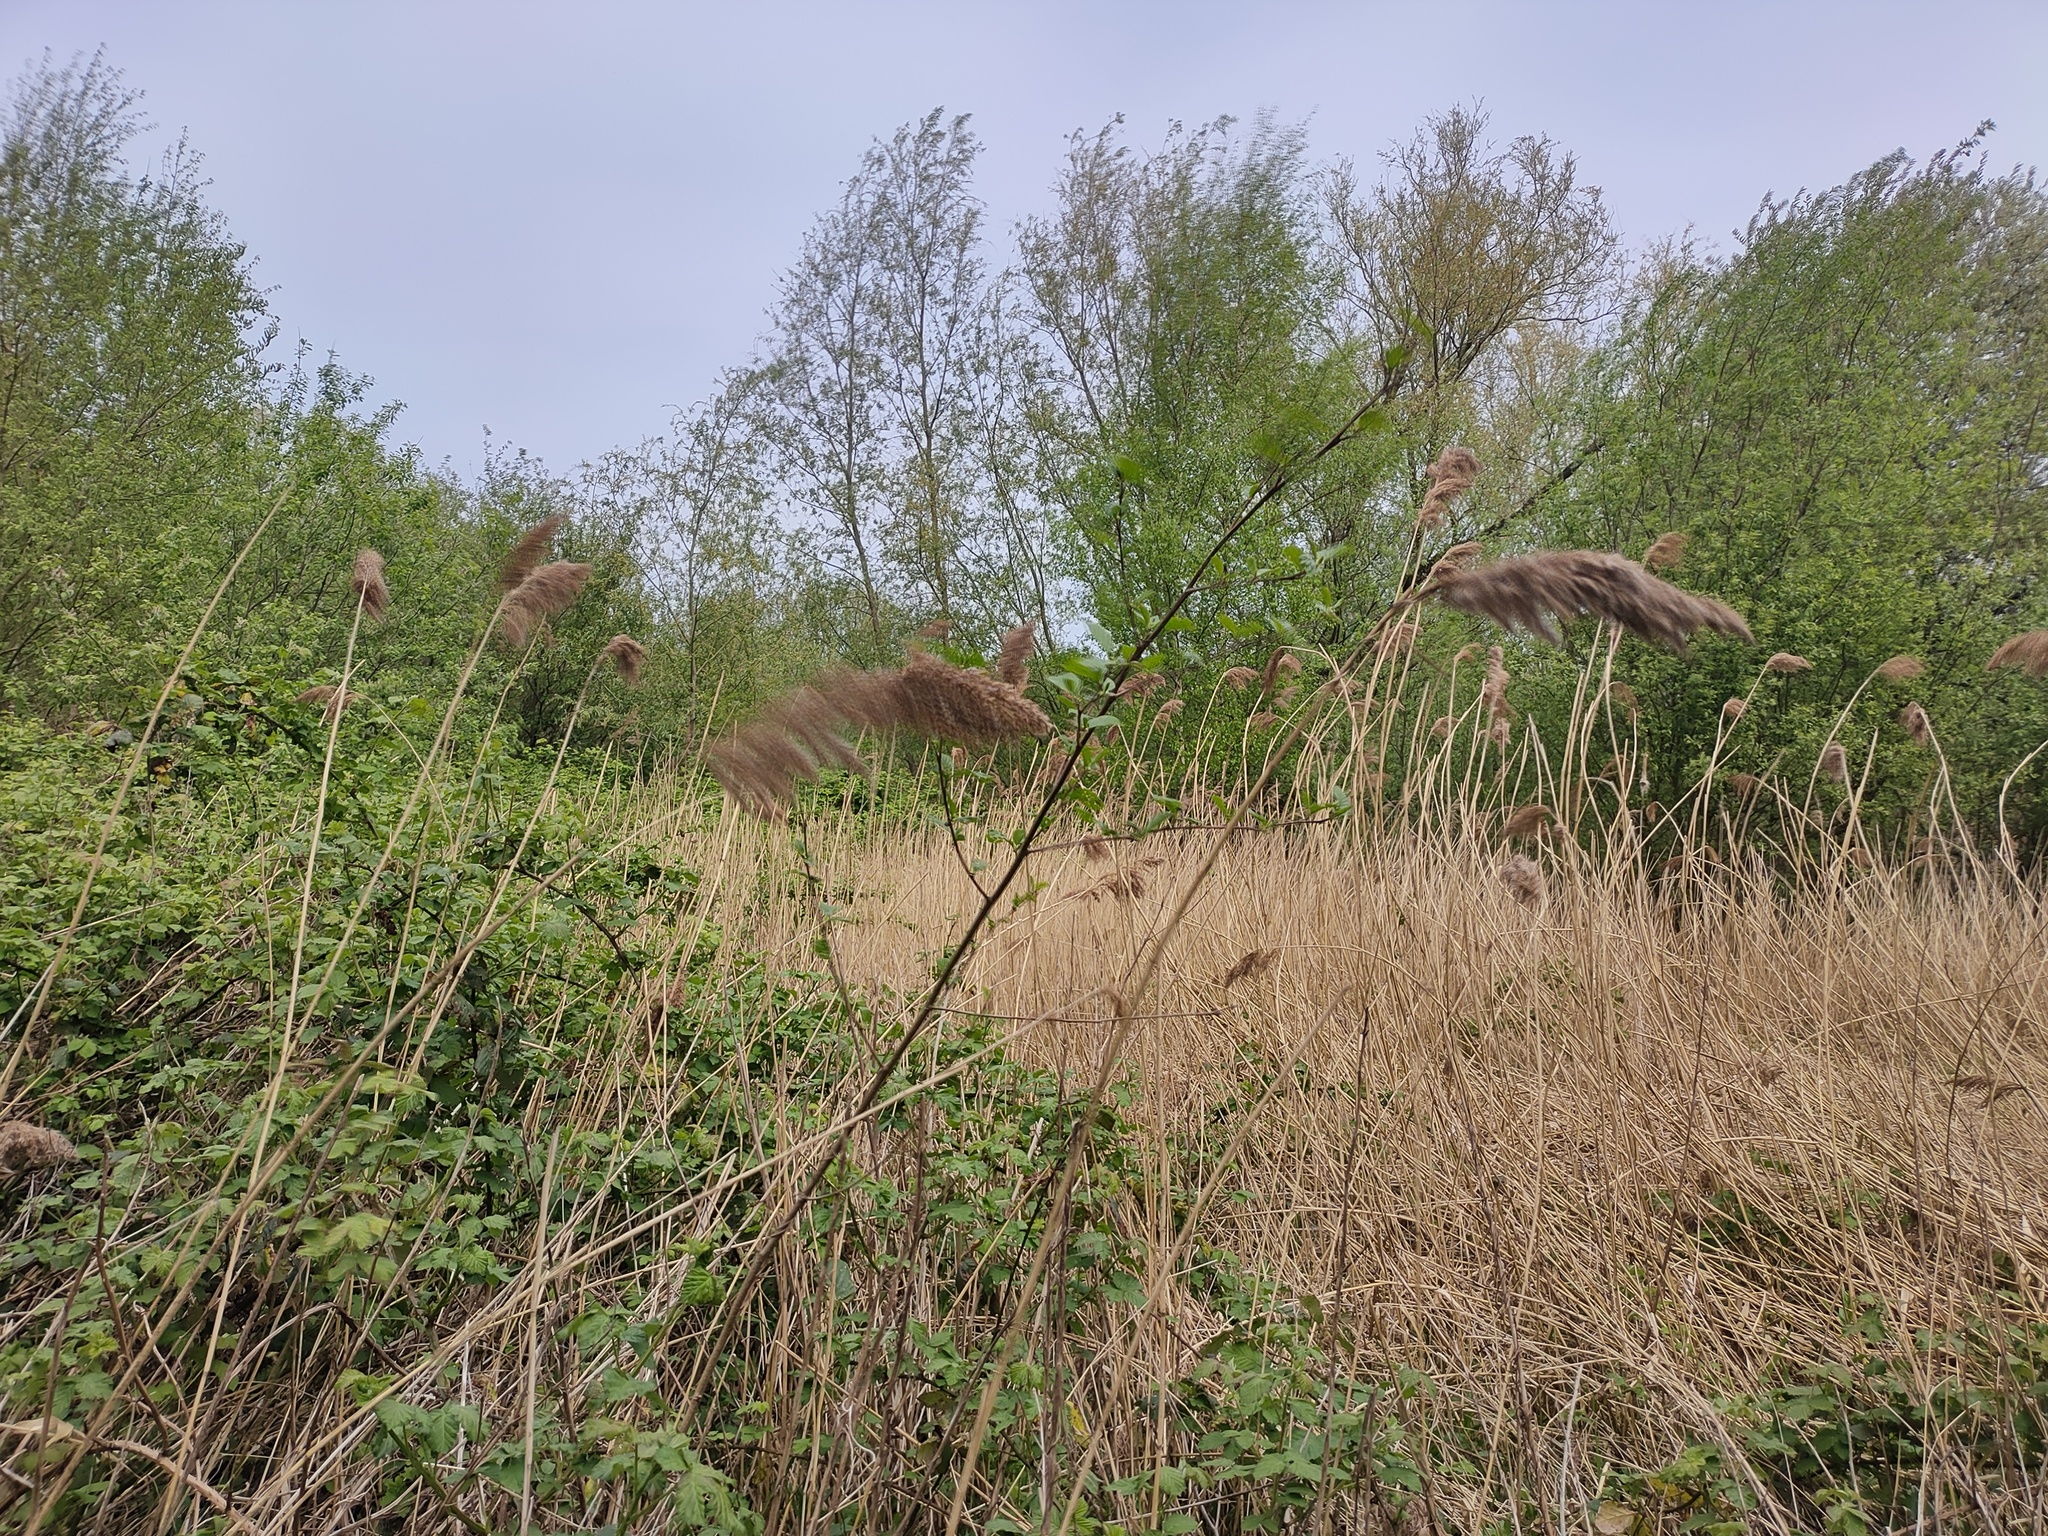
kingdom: Plantae
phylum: Tracheophyta
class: Liliopsida
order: Poales
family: Poaceae
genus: Phragmites
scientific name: Phragmites australis
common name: Common reed
